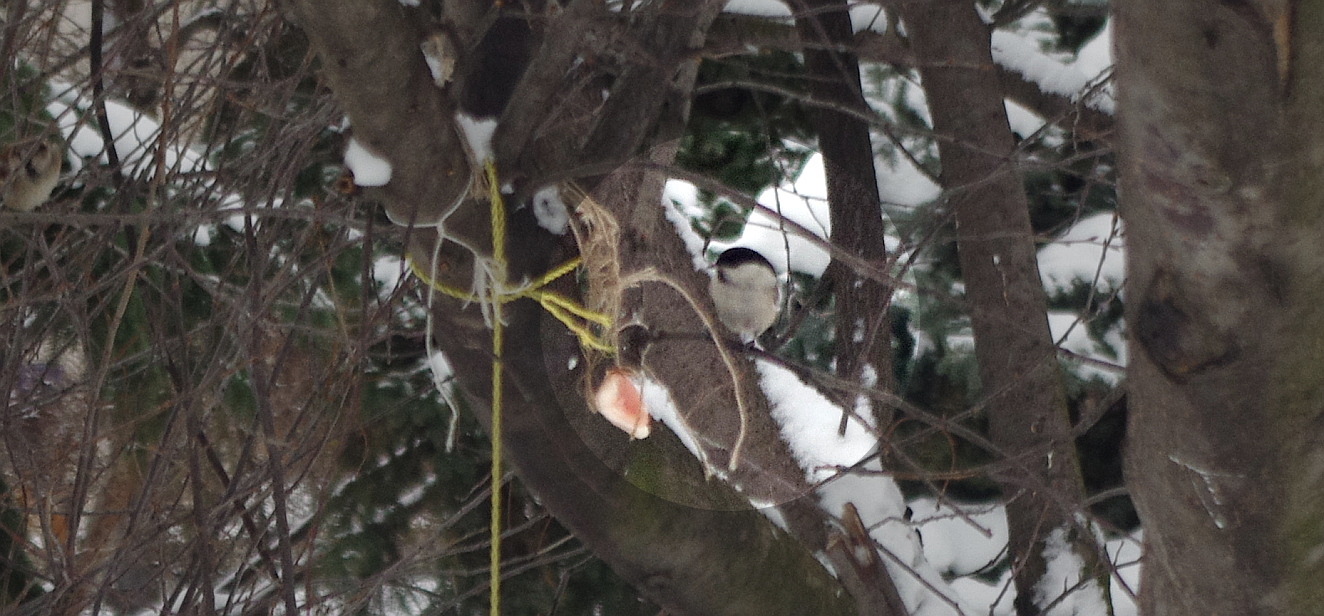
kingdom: Animalia
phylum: Chordata
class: Aves
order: Passeriformes
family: Paridae
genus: Poecile
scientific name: Poecile montanus
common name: Willow tit
